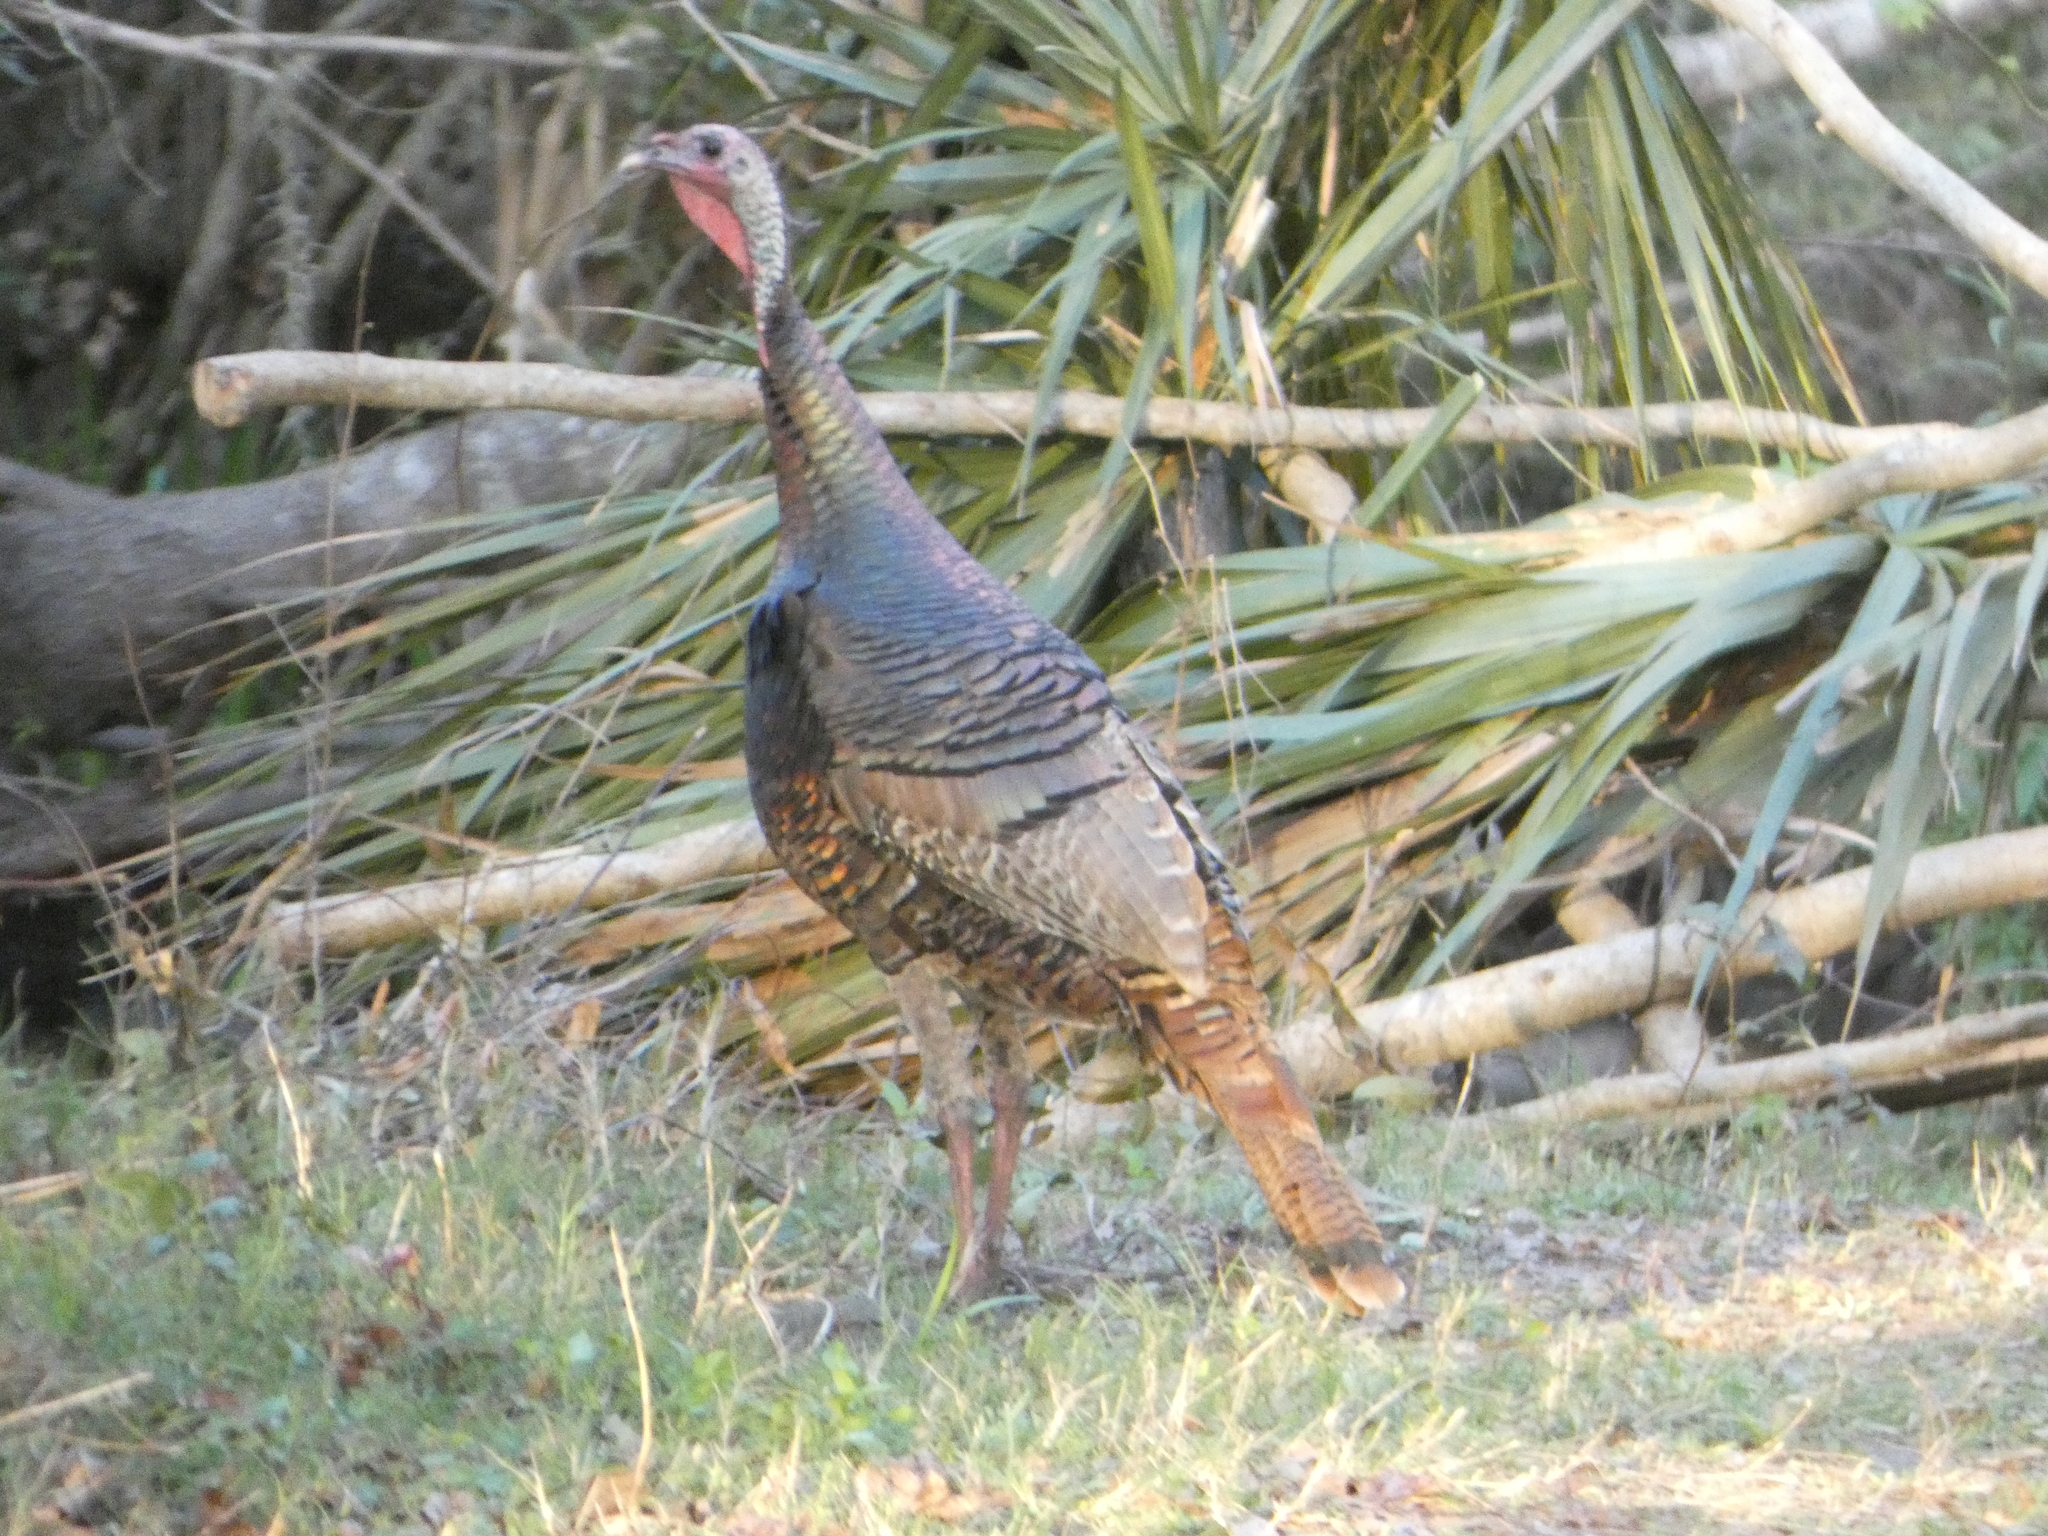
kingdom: Animalia
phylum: Chordata
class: Aves
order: Galliformes
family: Phasianidae
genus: Meleagris
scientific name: Meleagris gallopavo
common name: Wild turkey
